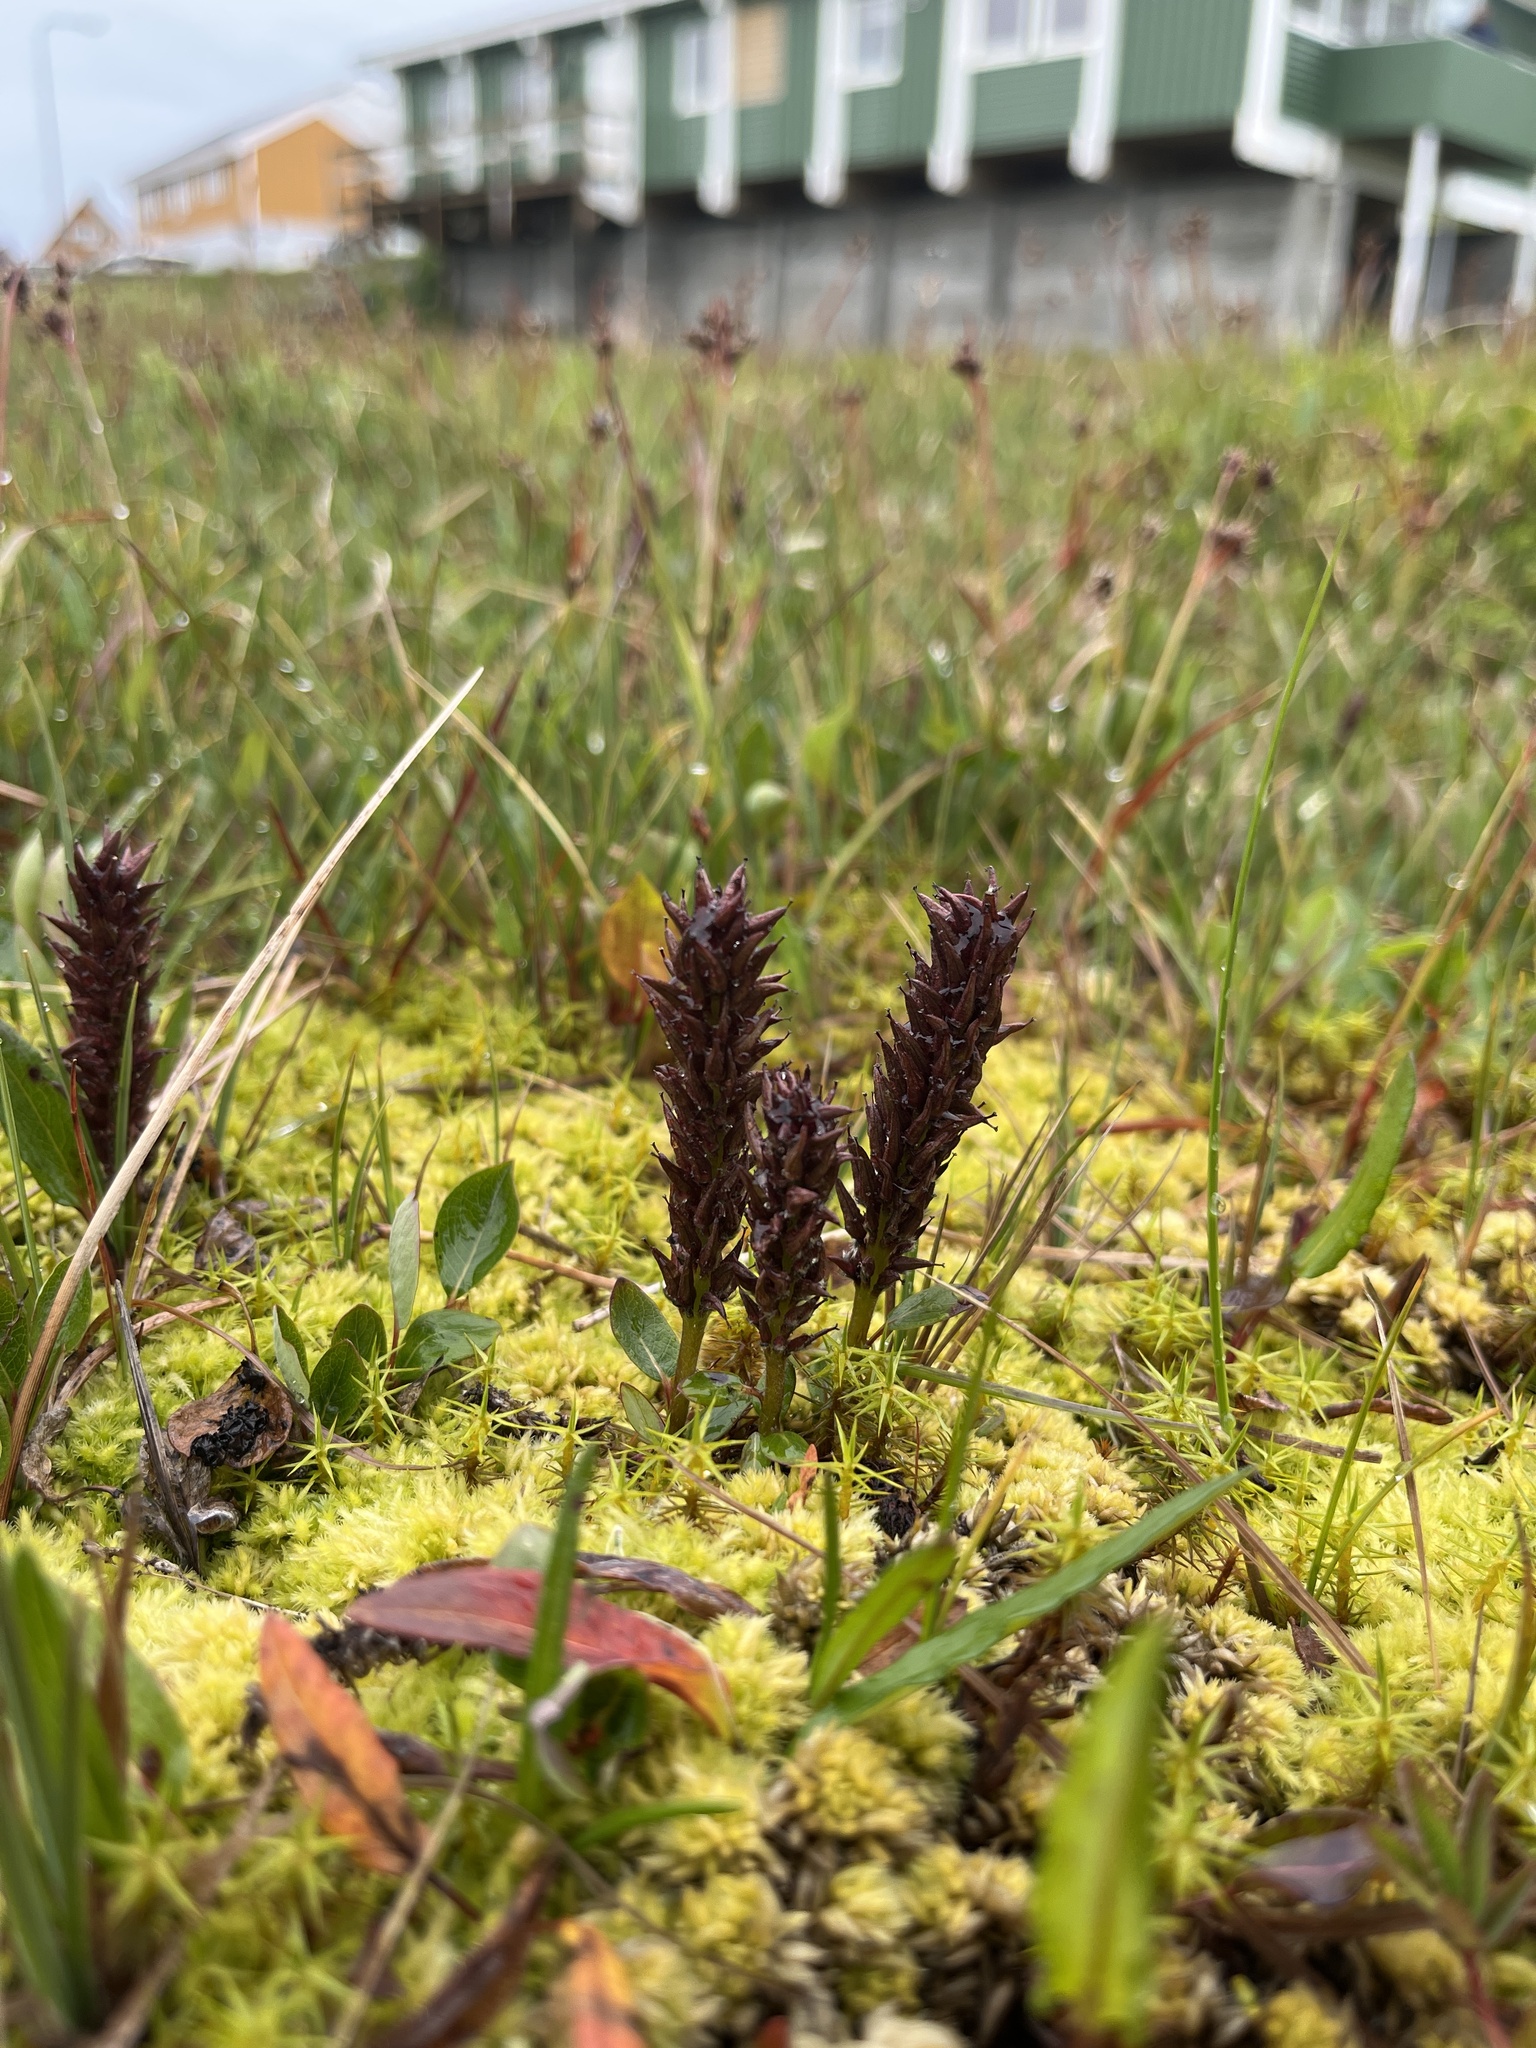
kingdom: Plantae
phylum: Tracheophyta
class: Magnoliopsida
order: Malpighiales
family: Salicaceae
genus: Salix
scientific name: Salix arctophila
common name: Greenland willow
